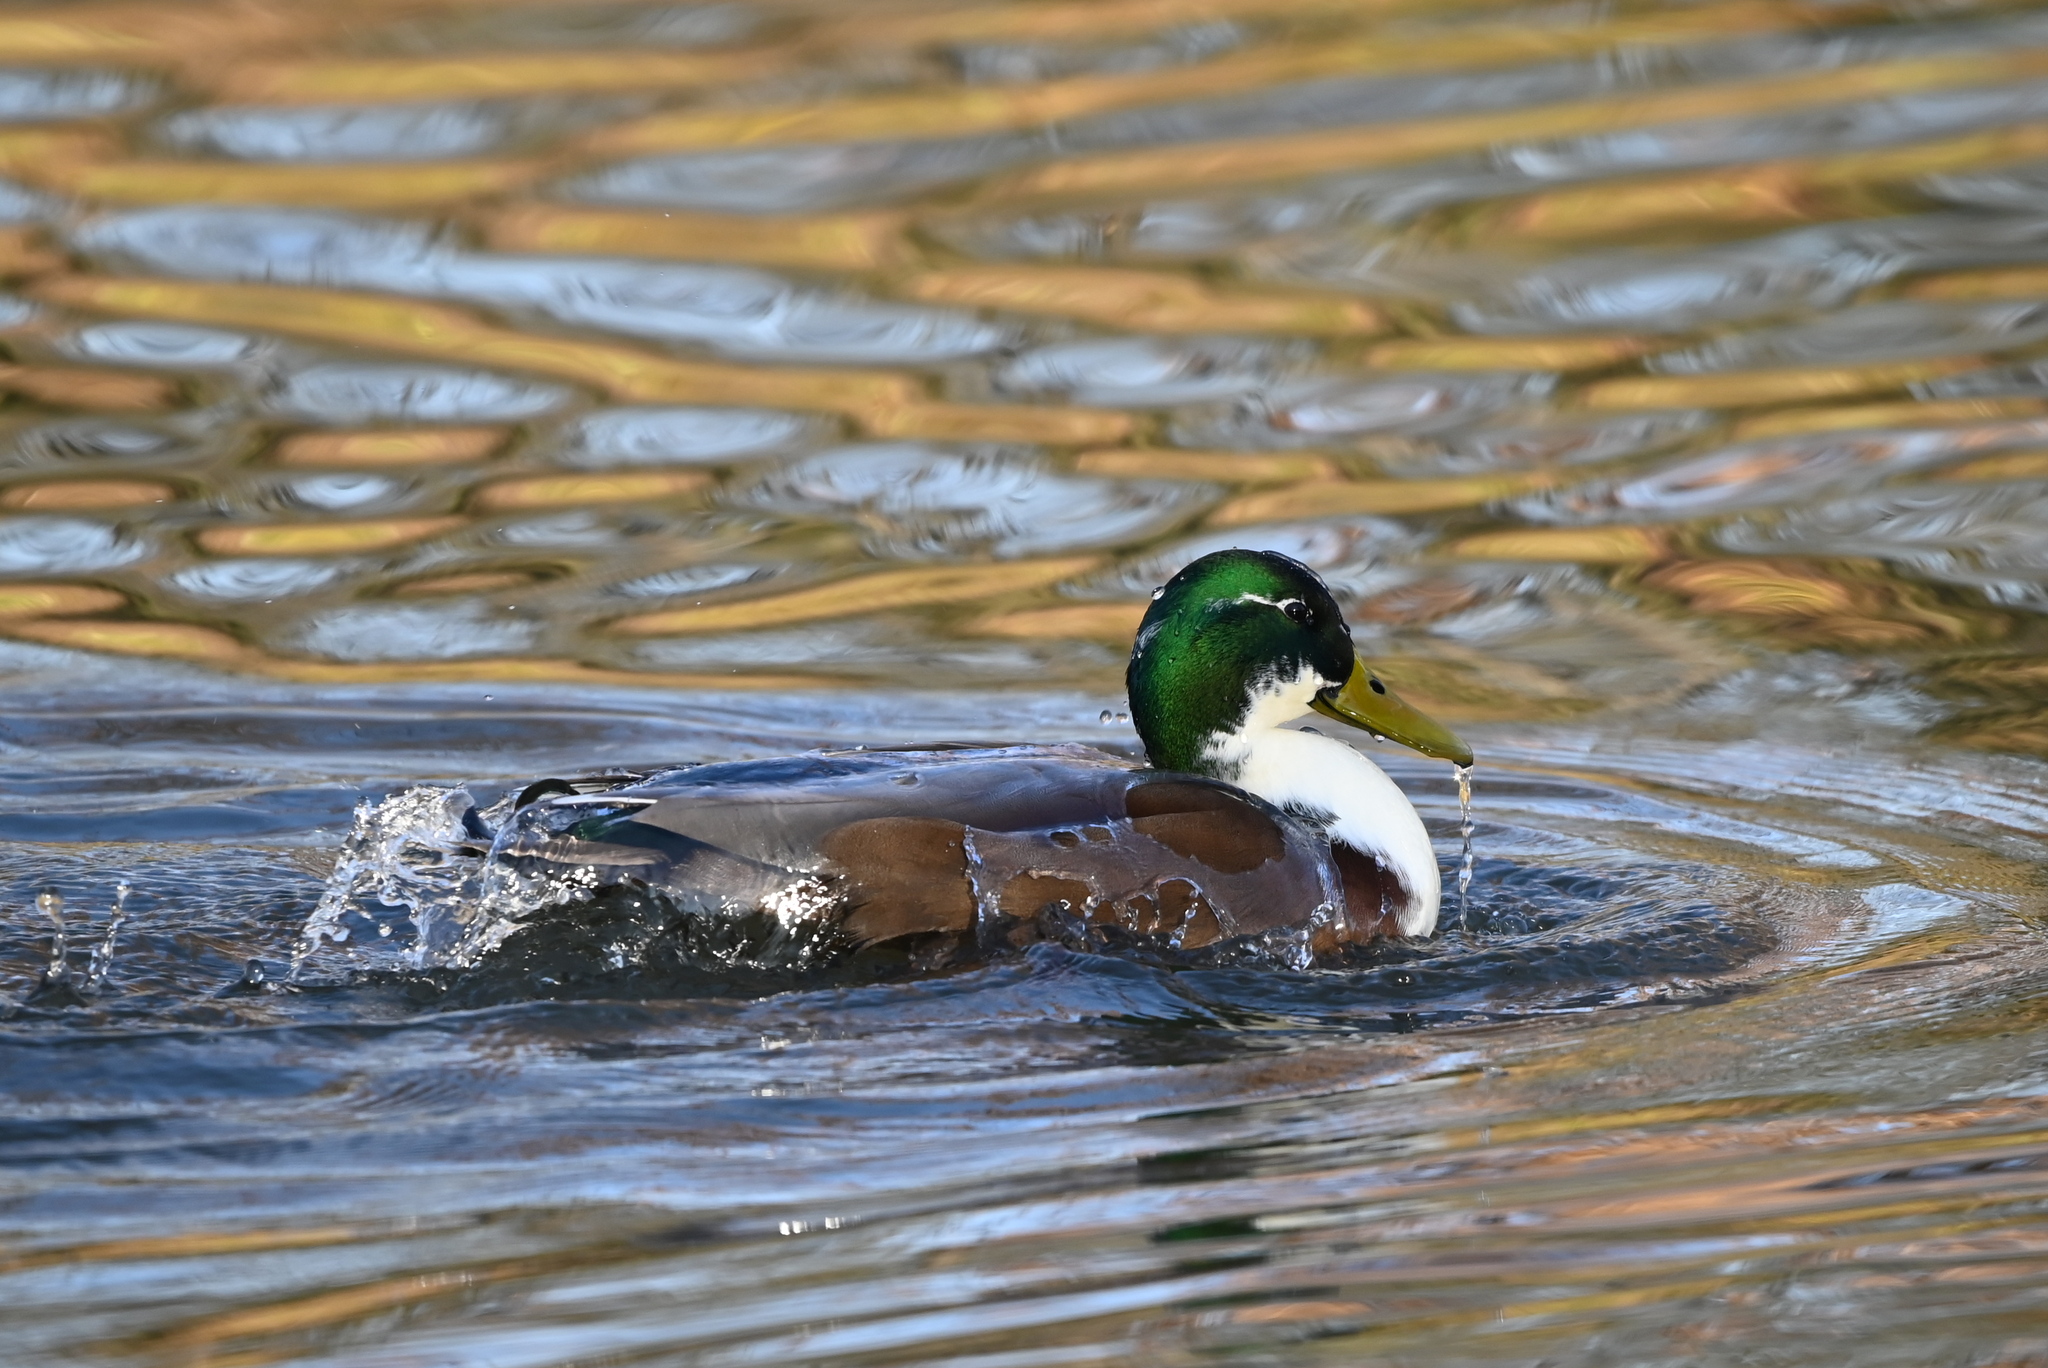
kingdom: Animalia
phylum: Chordata
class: Aves
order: Anseriformes
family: Anatidae
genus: Anas
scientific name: Anas platyrhynchos
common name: Mallard
